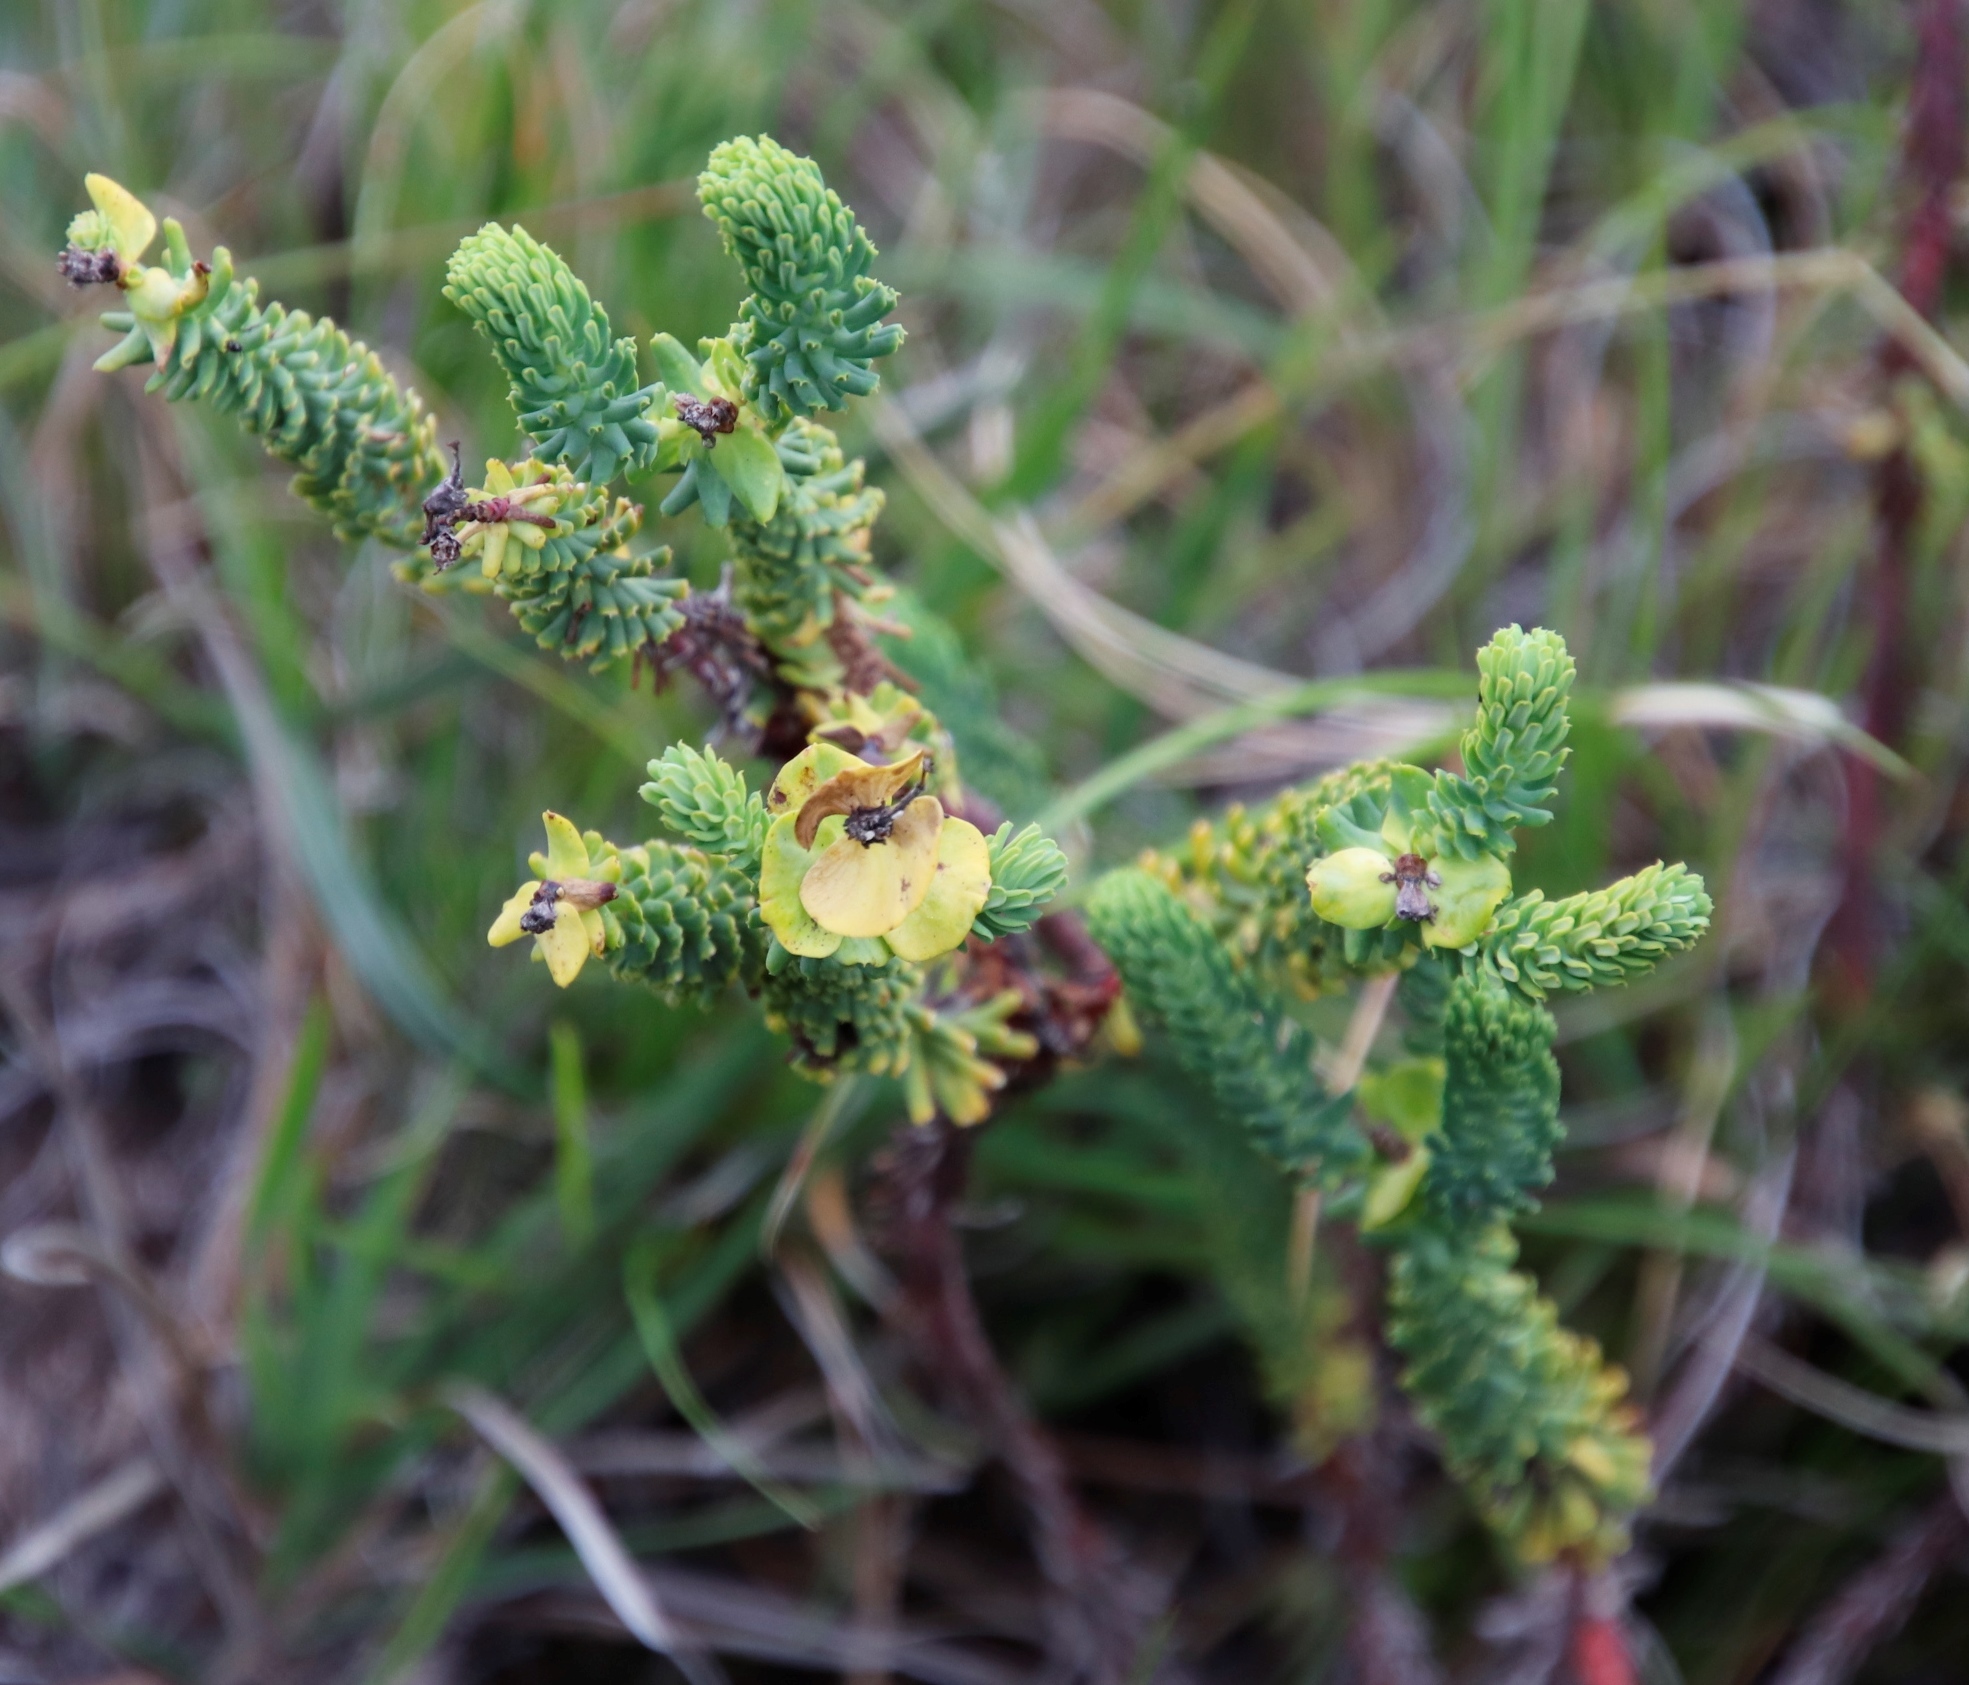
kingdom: Plantae
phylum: Tracheophyta
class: Magnoliopsida
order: Malpighiales
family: Euphorbiaceae
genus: Euphorbia
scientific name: Euphorbia ericoides
